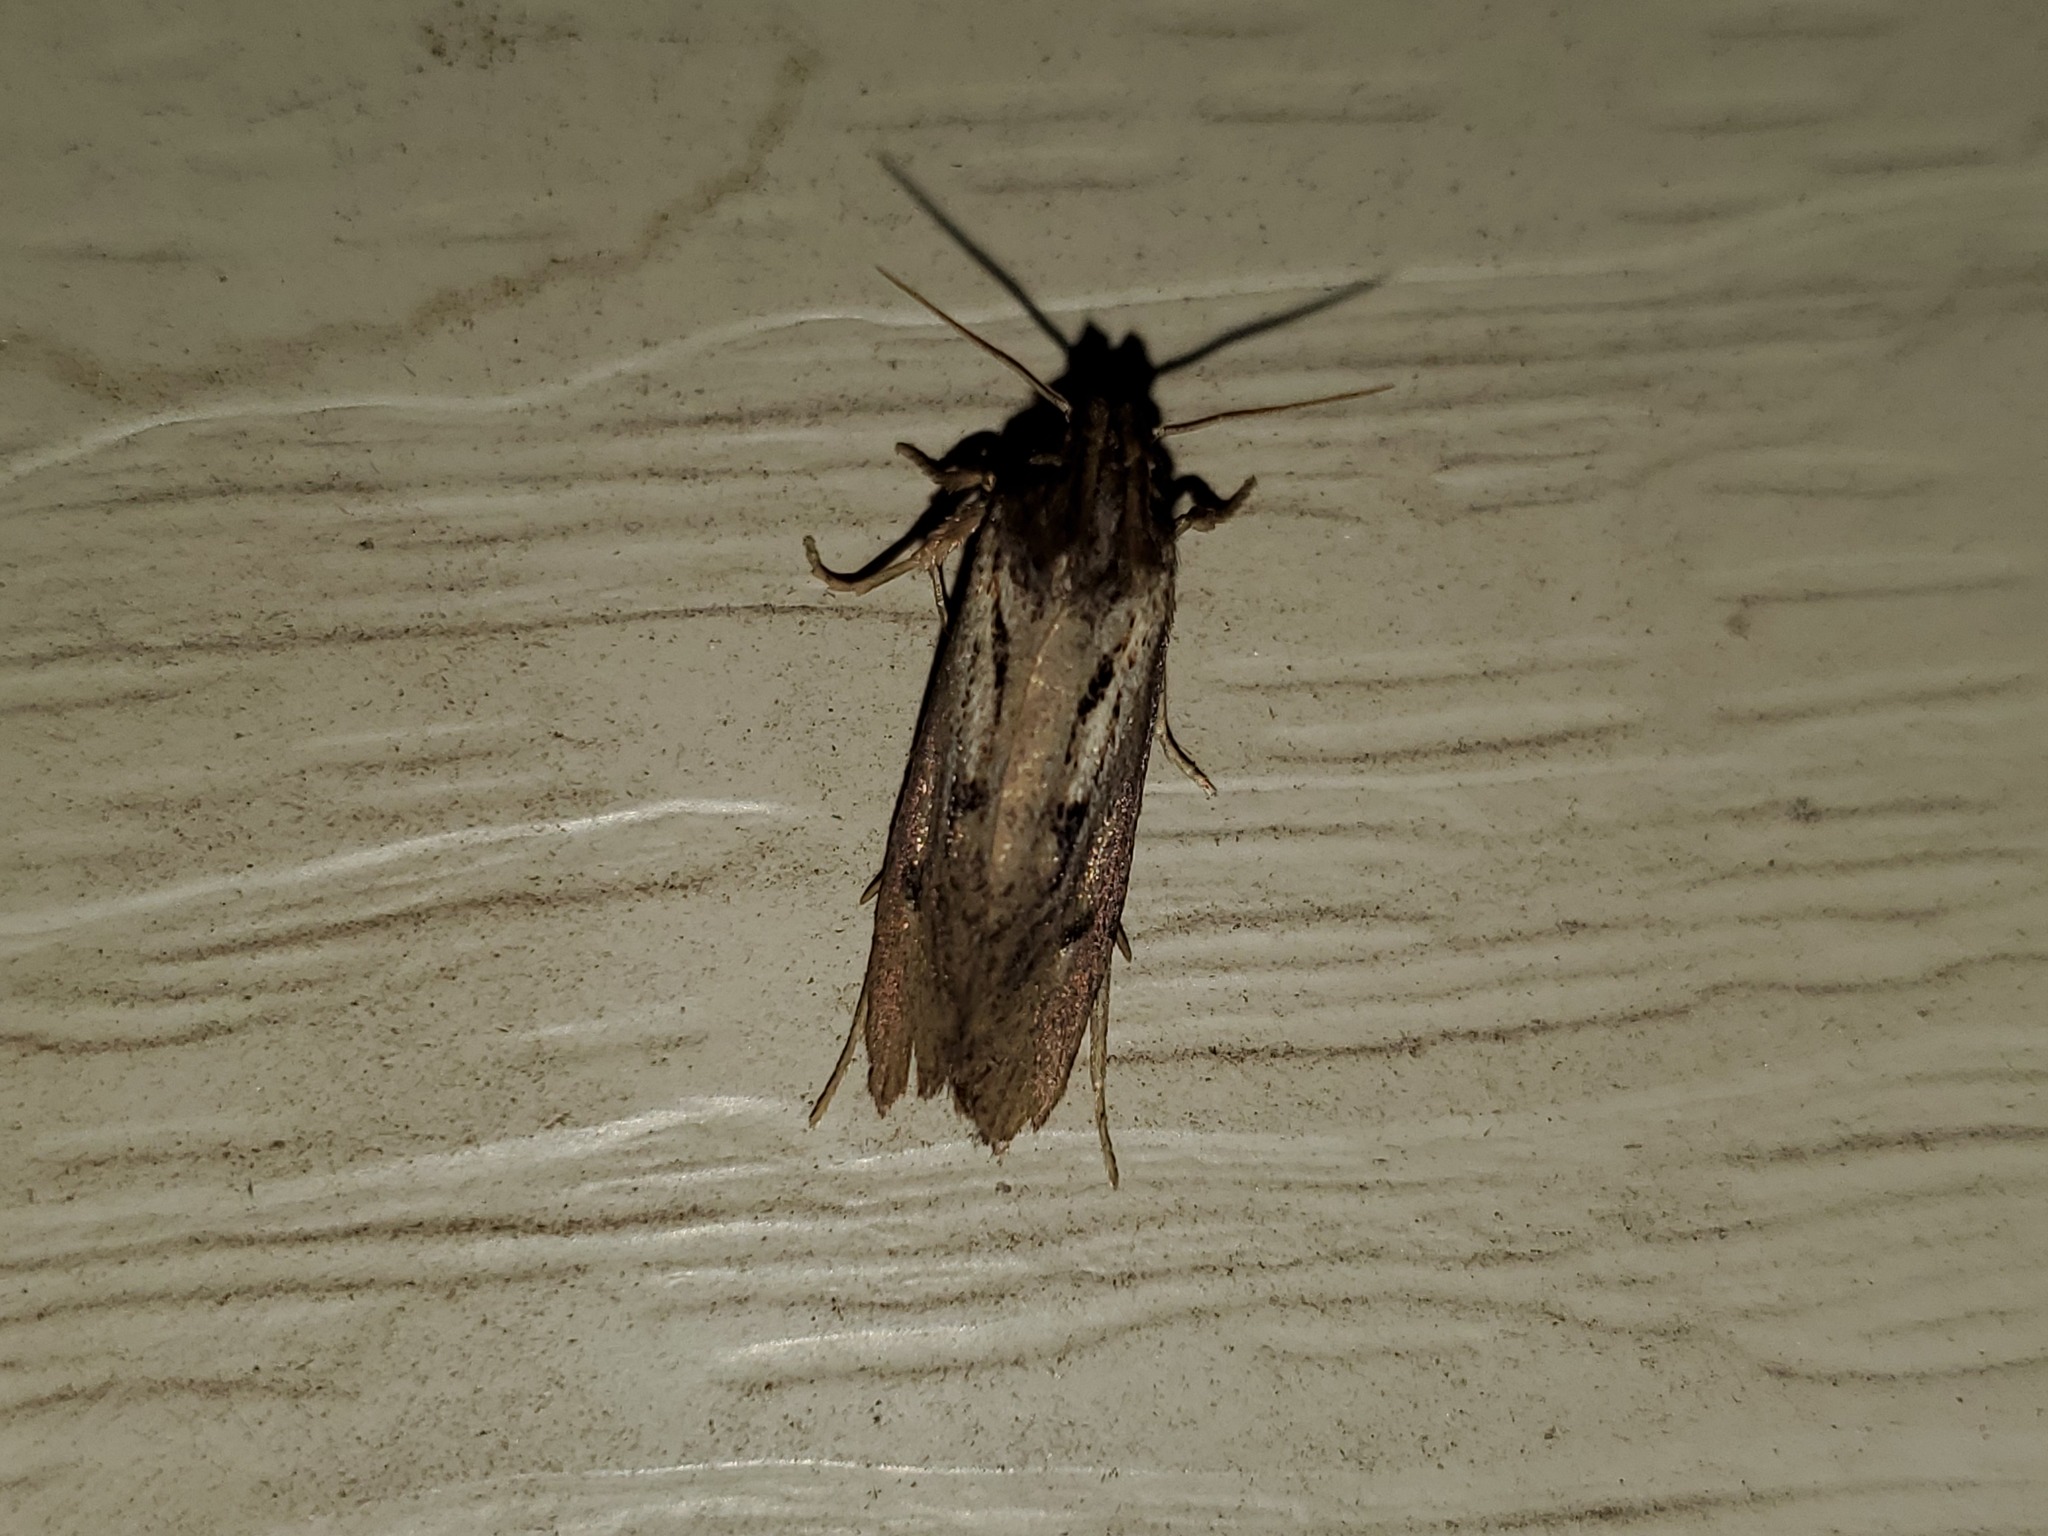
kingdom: Animalia
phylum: Arthropoda
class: Insecta
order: Lepidoptera
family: Tineidae
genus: Acrolophus
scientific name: Acrolophus popeanella
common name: Clemens' grass tubeworm moth
